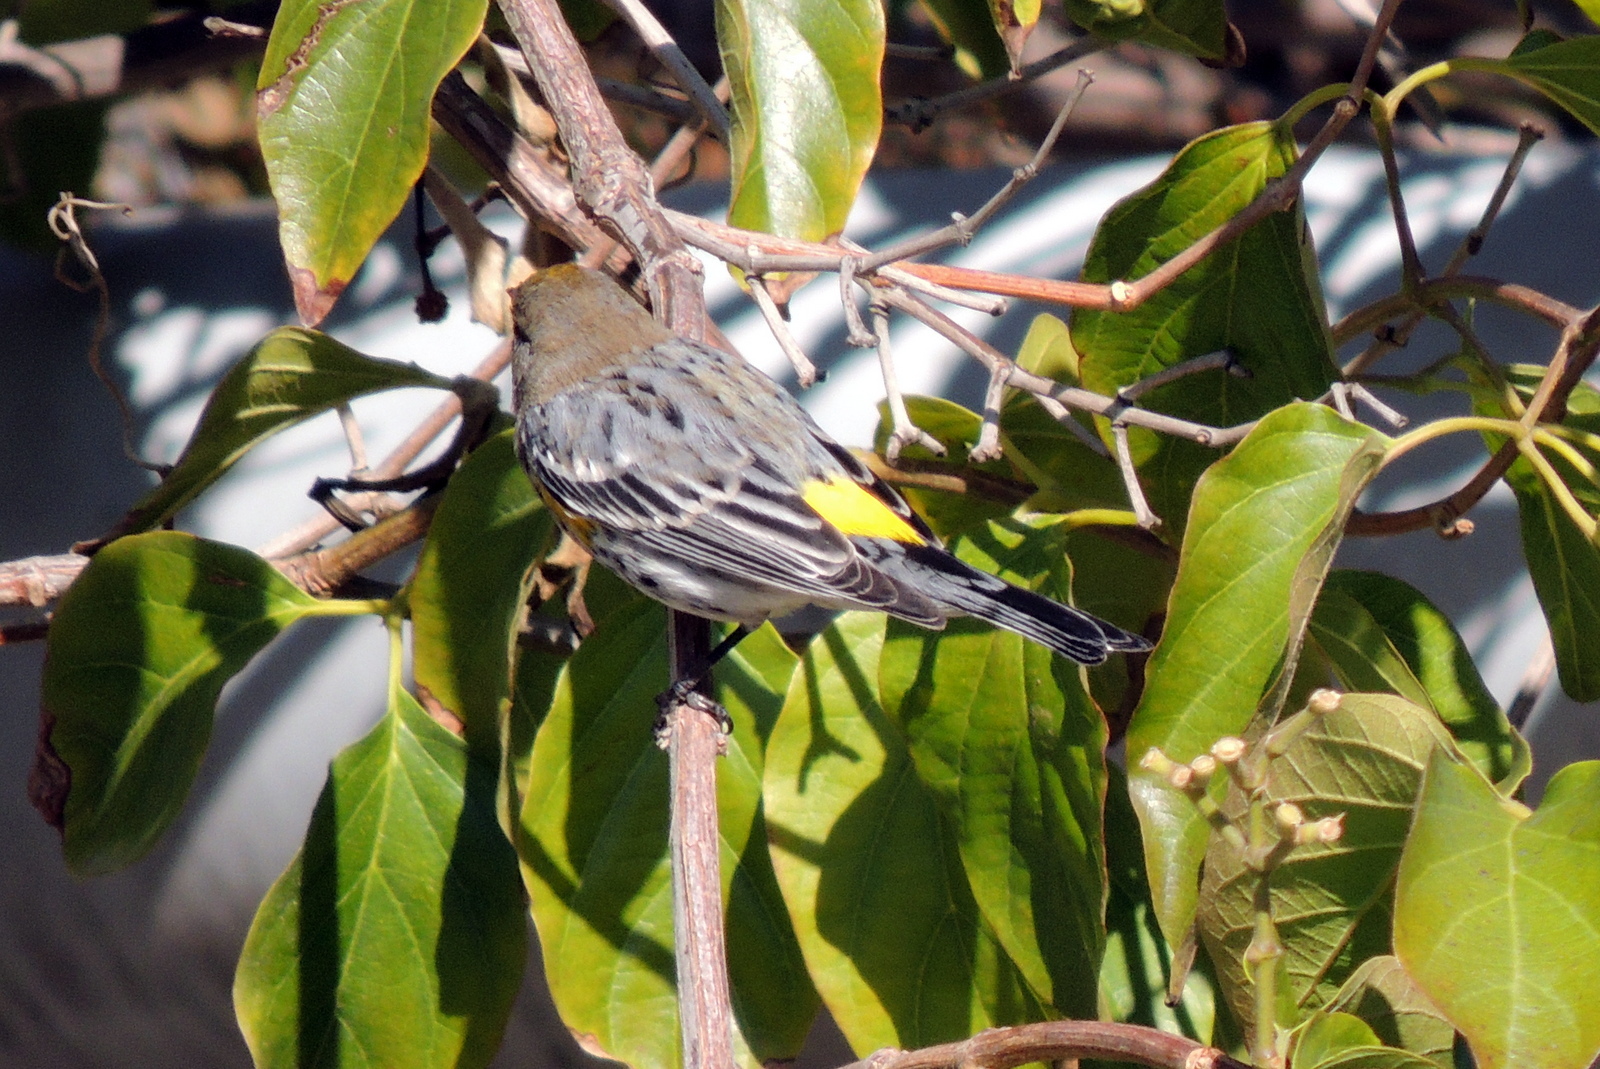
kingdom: Animalia
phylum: Chordata
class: Aves
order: Passeriformes
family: Parulidae
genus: Setophaga
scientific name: Setophaga coronata
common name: Myrtle warbler
